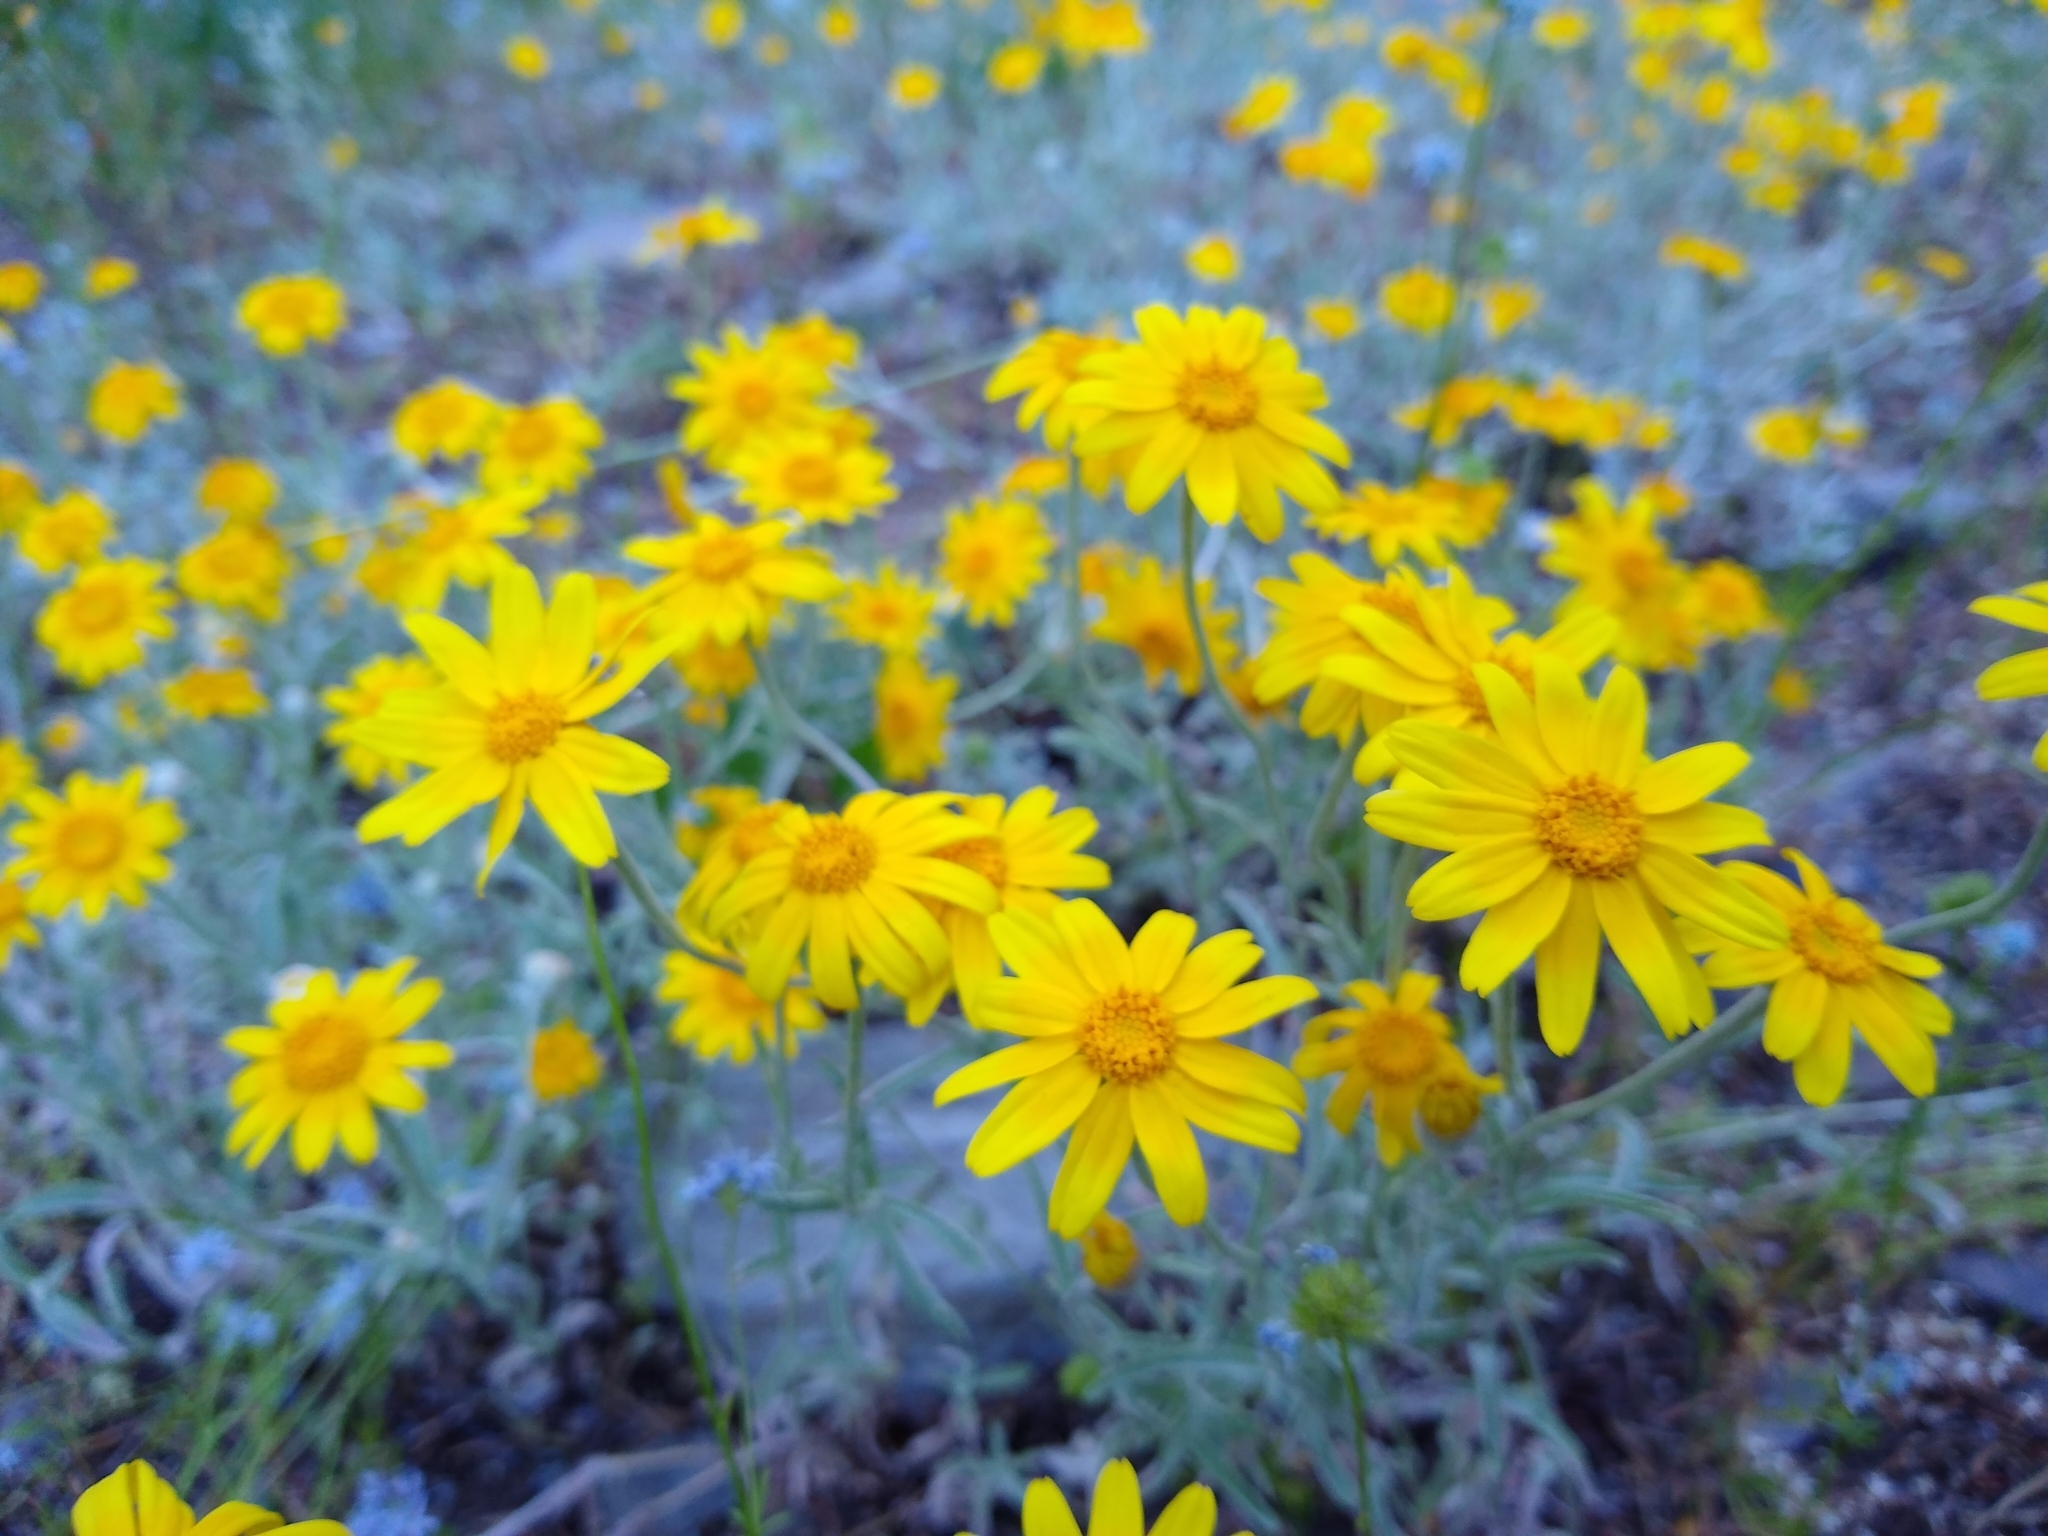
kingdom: Plantae
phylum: Tracheophyta
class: Magnoliopsida
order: Asterales
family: Asteraceae
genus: Eriophyllum
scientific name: Eriophyllum lanatum
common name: Common woolly-sunflower
